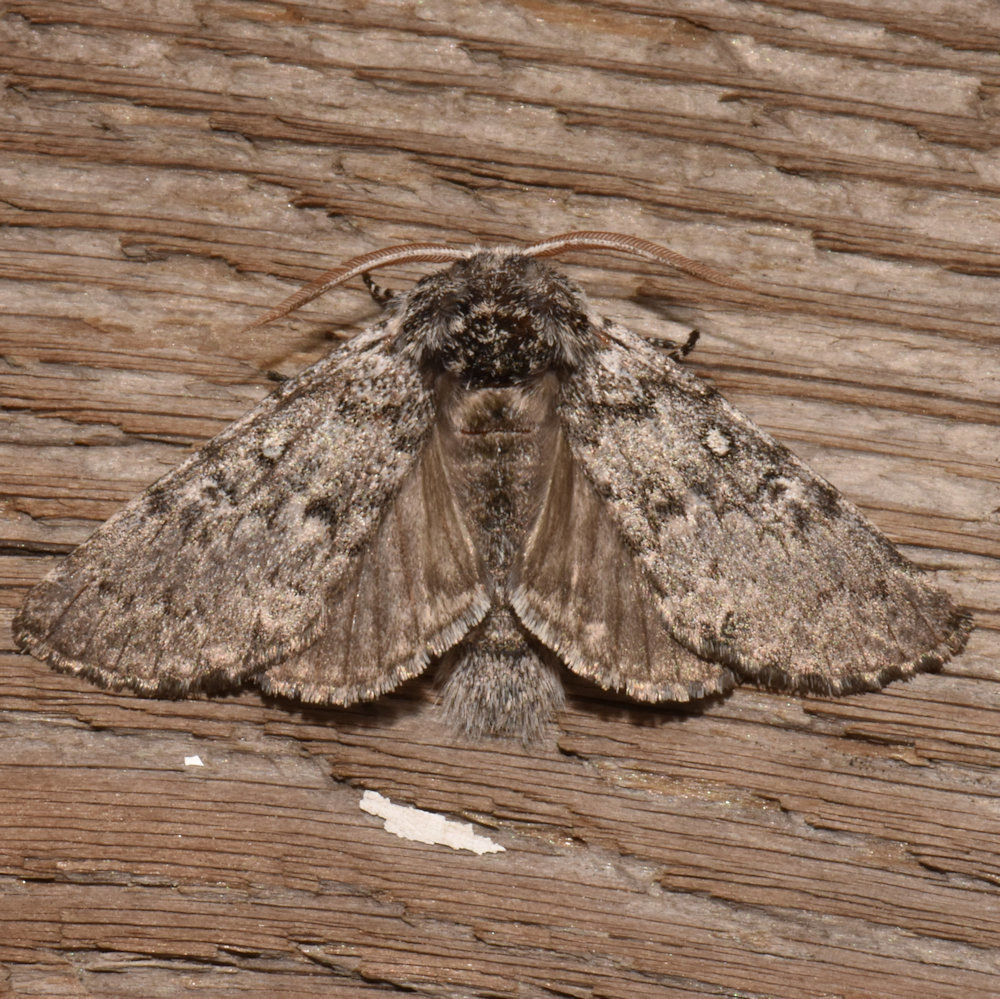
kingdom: Animalia
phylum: Arthropoda
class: Insecta
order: Lepidoptera
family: Noctuidae
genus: Colocasia
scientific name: Colocasia propinquilinea
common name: Close-banded demas
